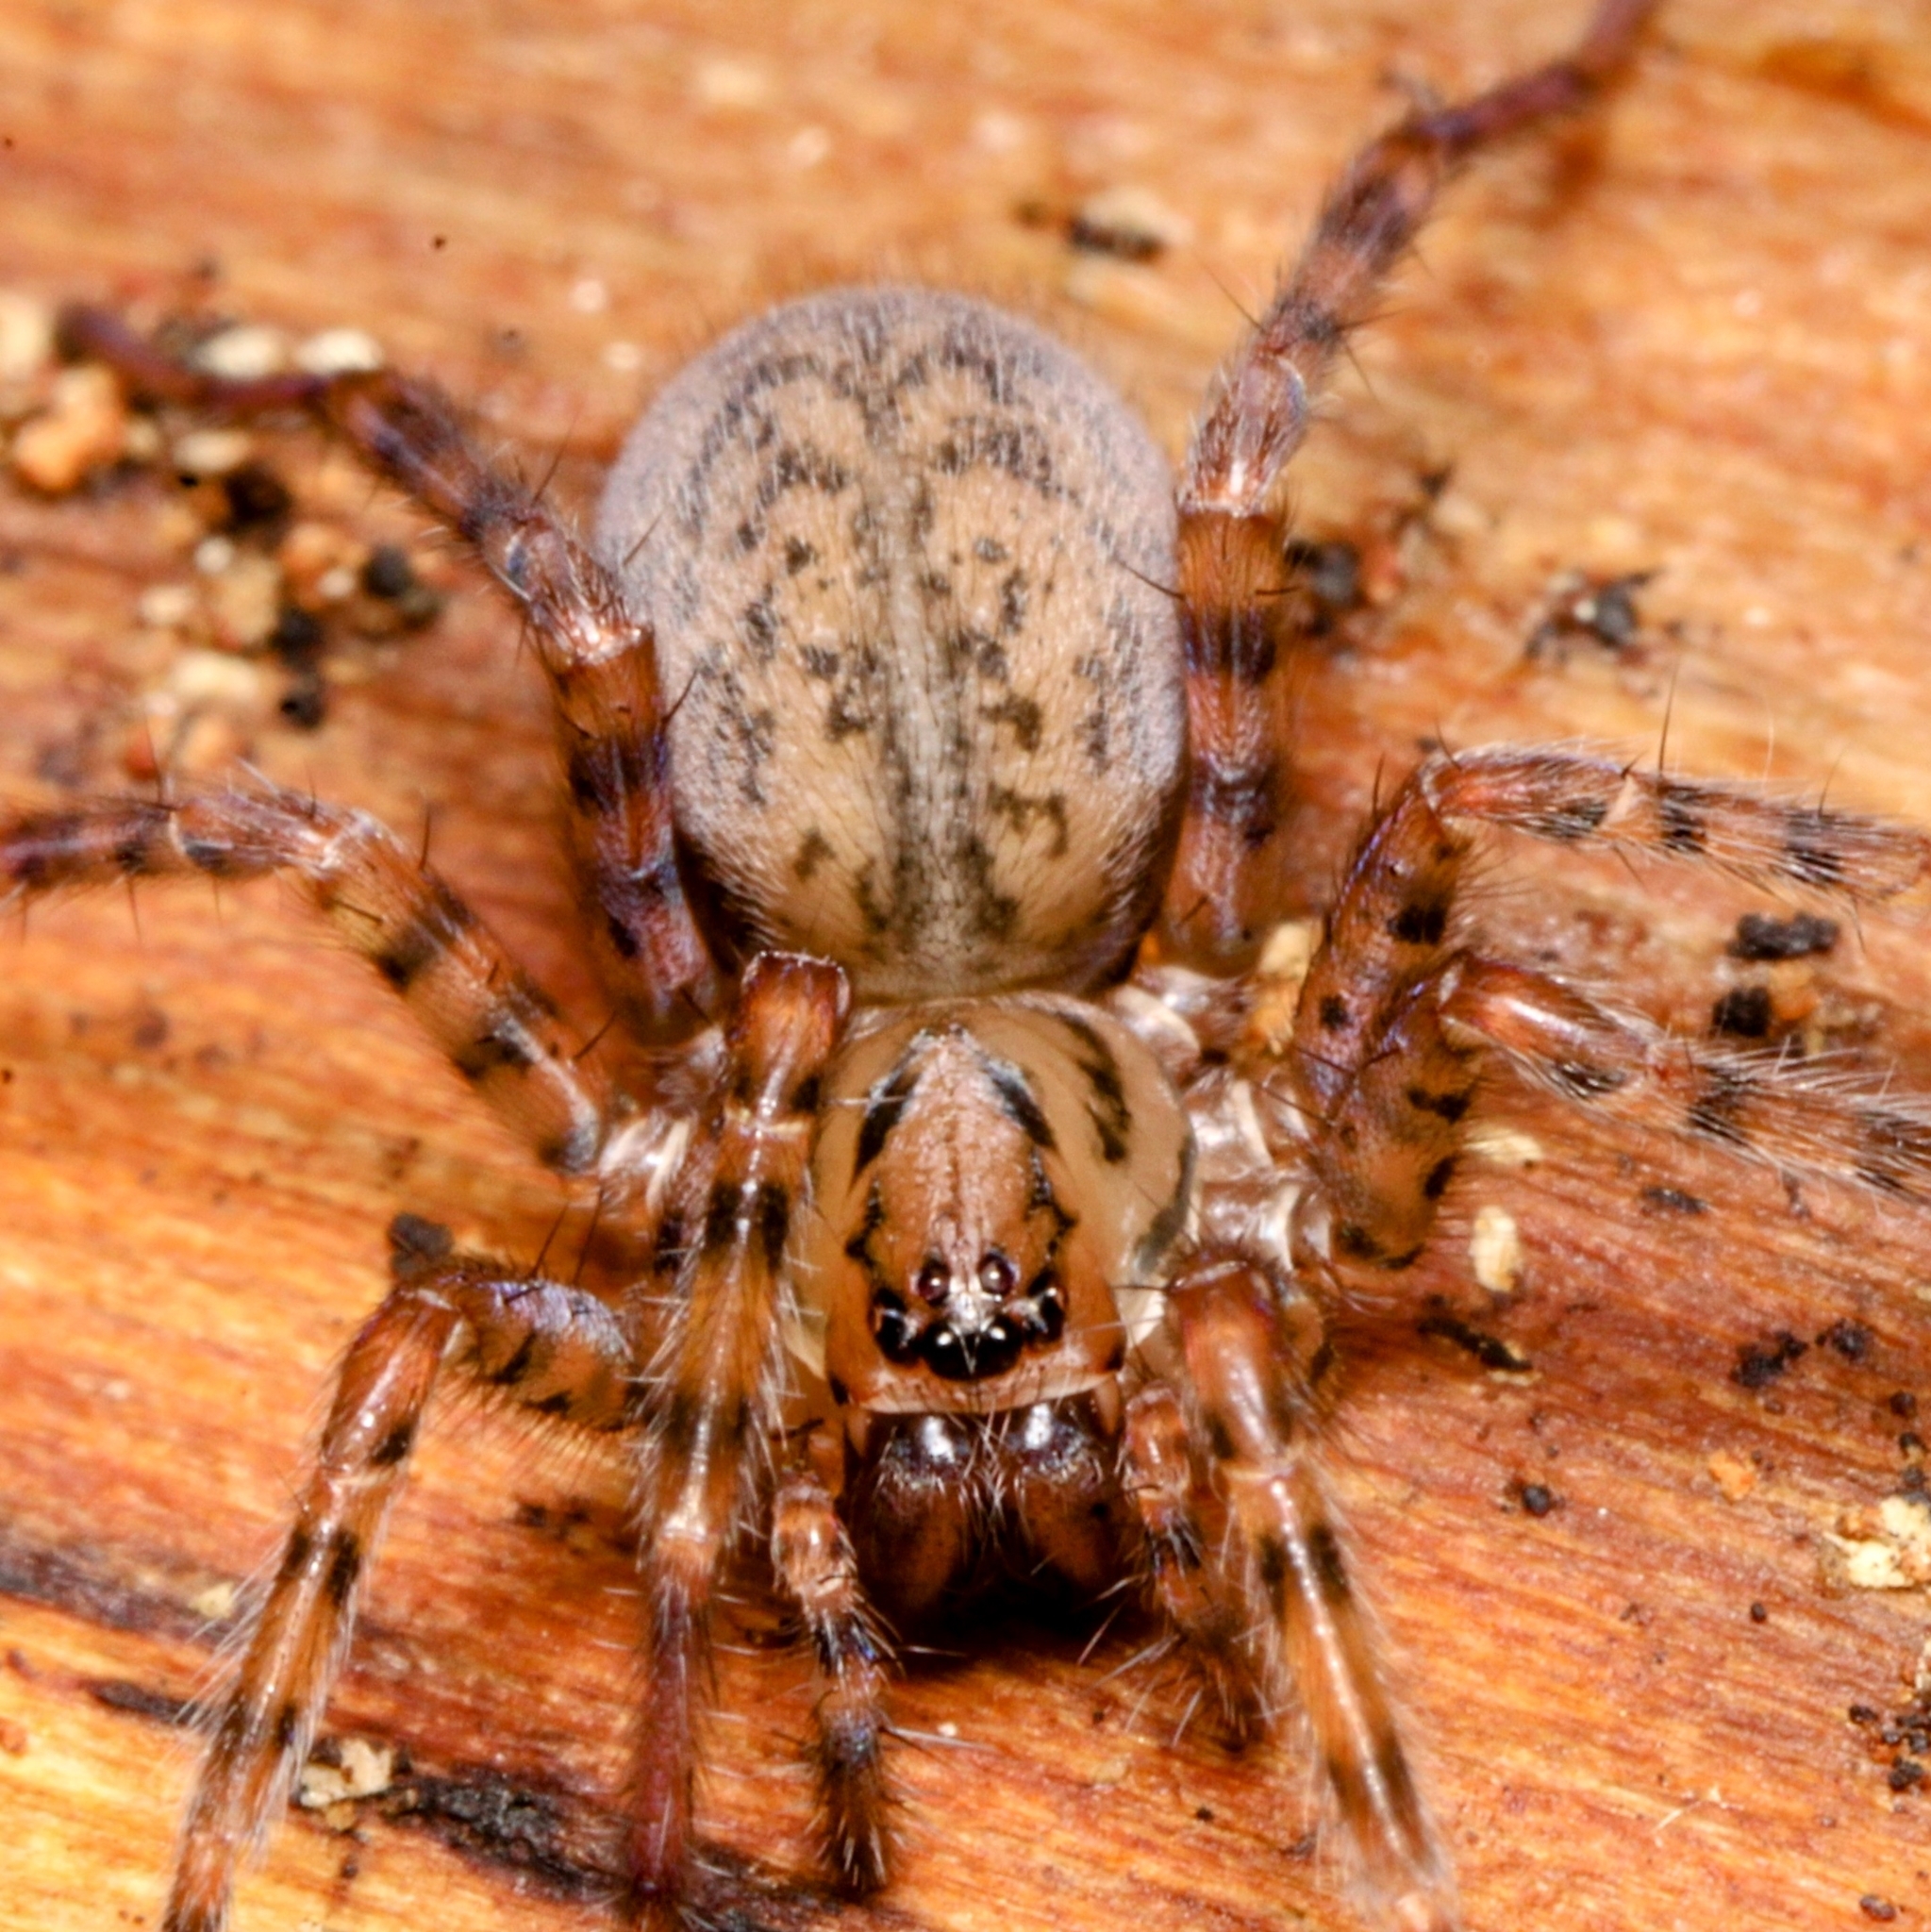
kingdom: Animalia
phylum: Arthropoda
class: Arachnida
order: Araneae
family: Agelenidae
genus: Coras
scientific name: Coras
